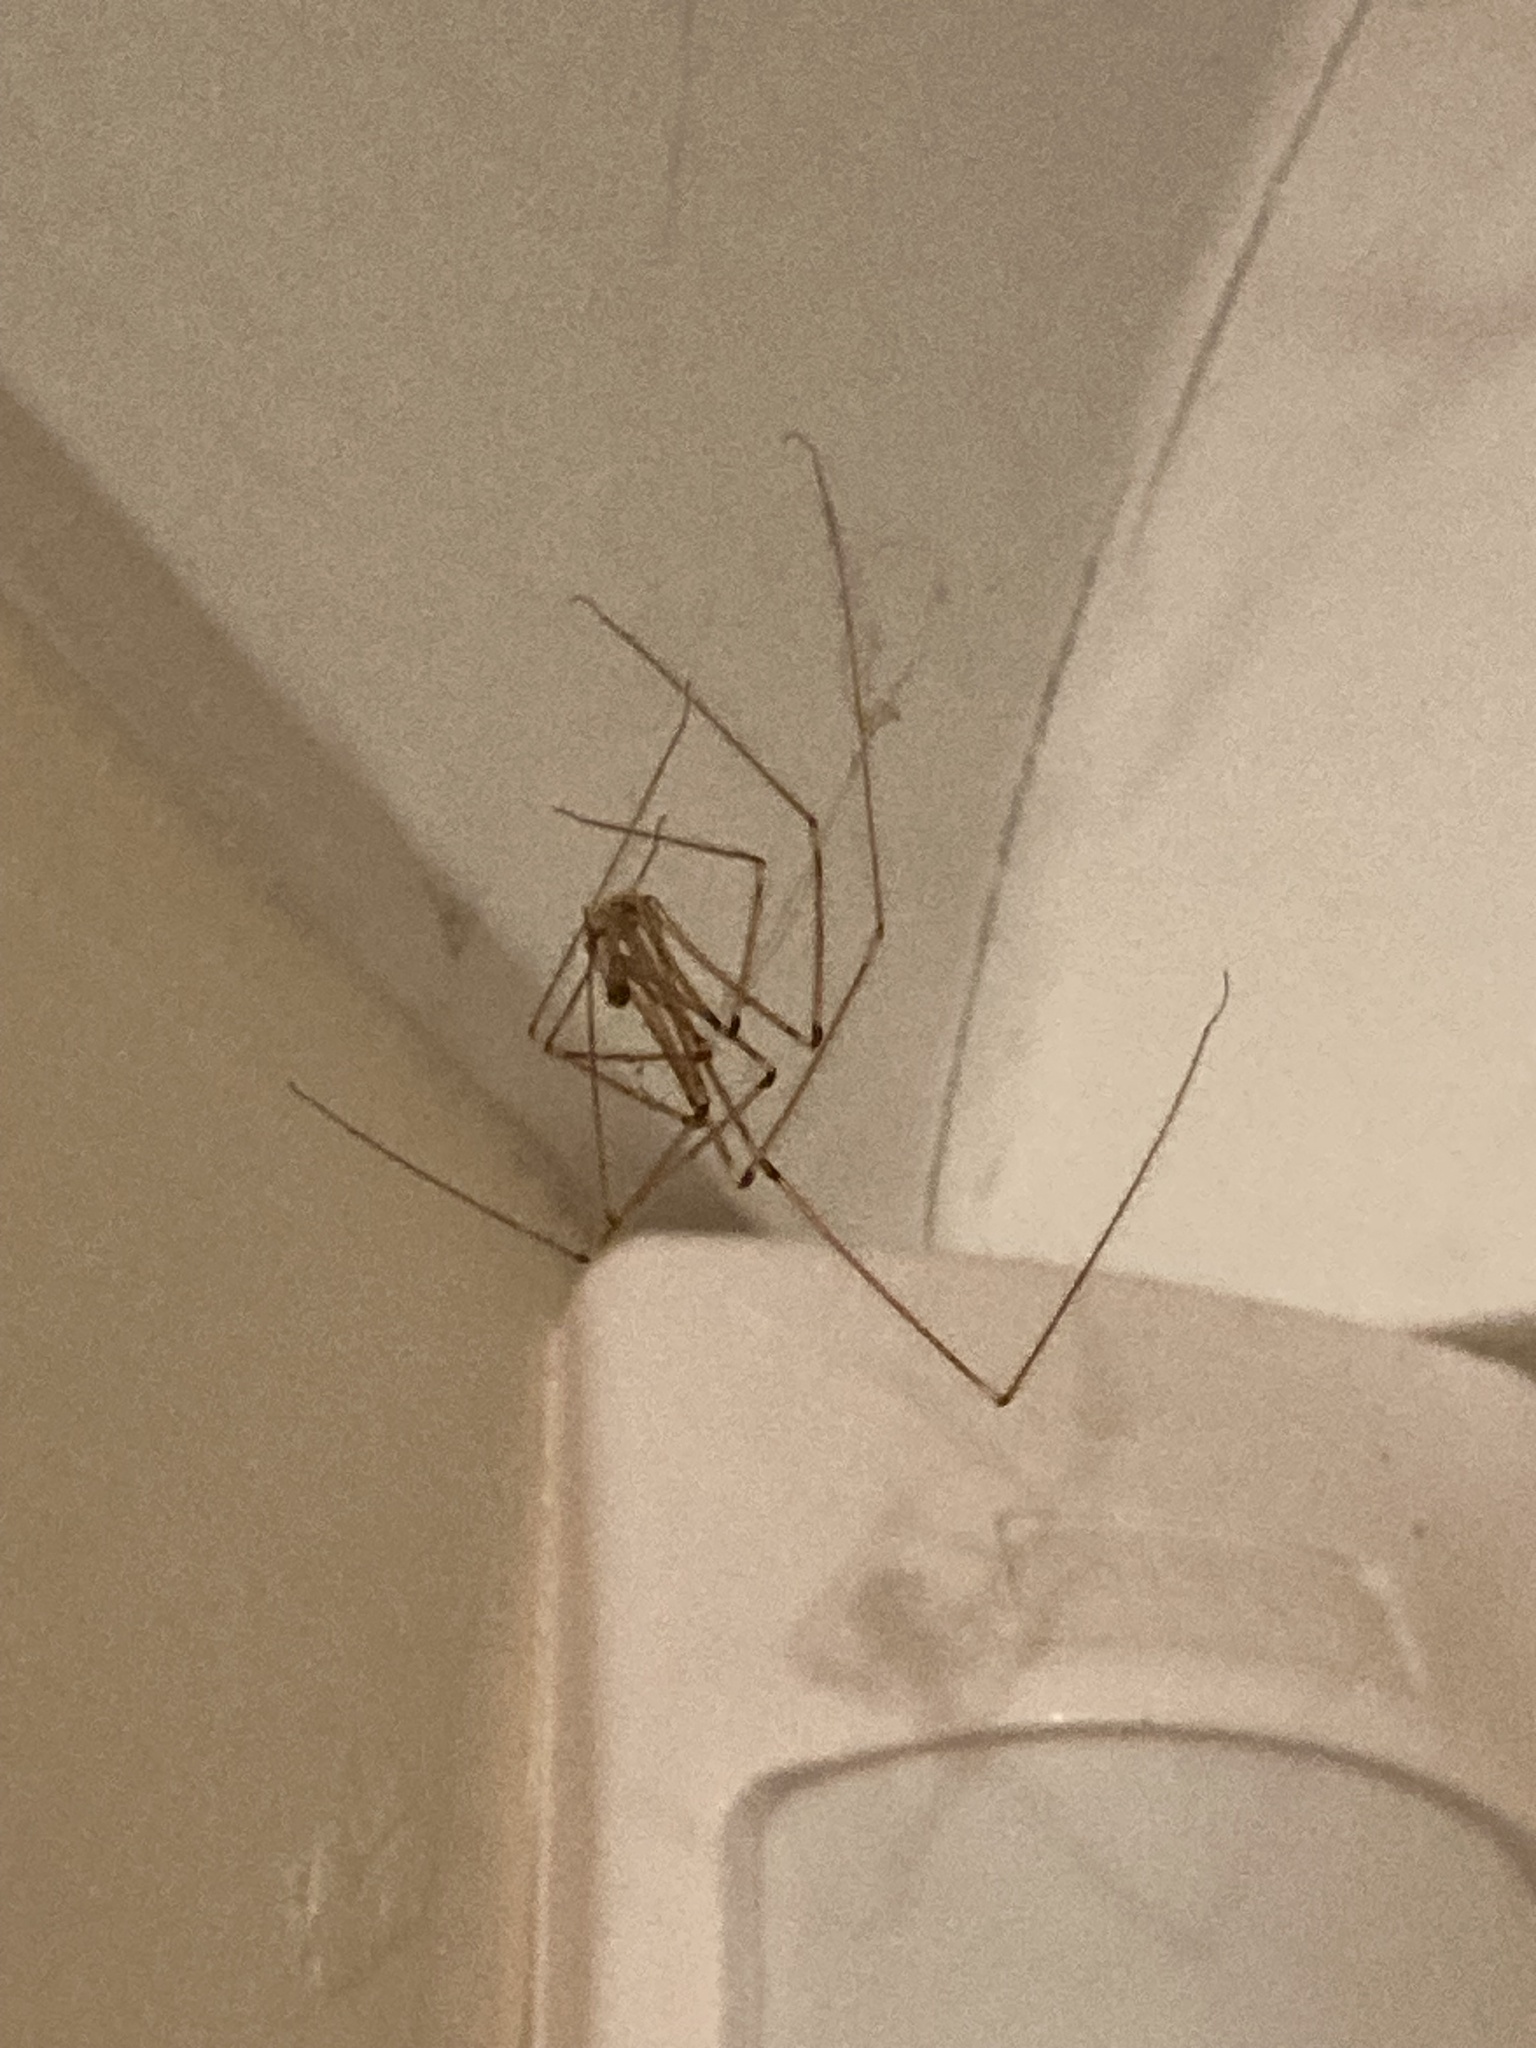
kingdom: Animalia
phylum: Arthropoda
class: Arachnida
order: Araneae
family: Pholcidae
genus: Pholcus
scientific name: Pholcus phalangioides
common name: Longbodied cellar spider
